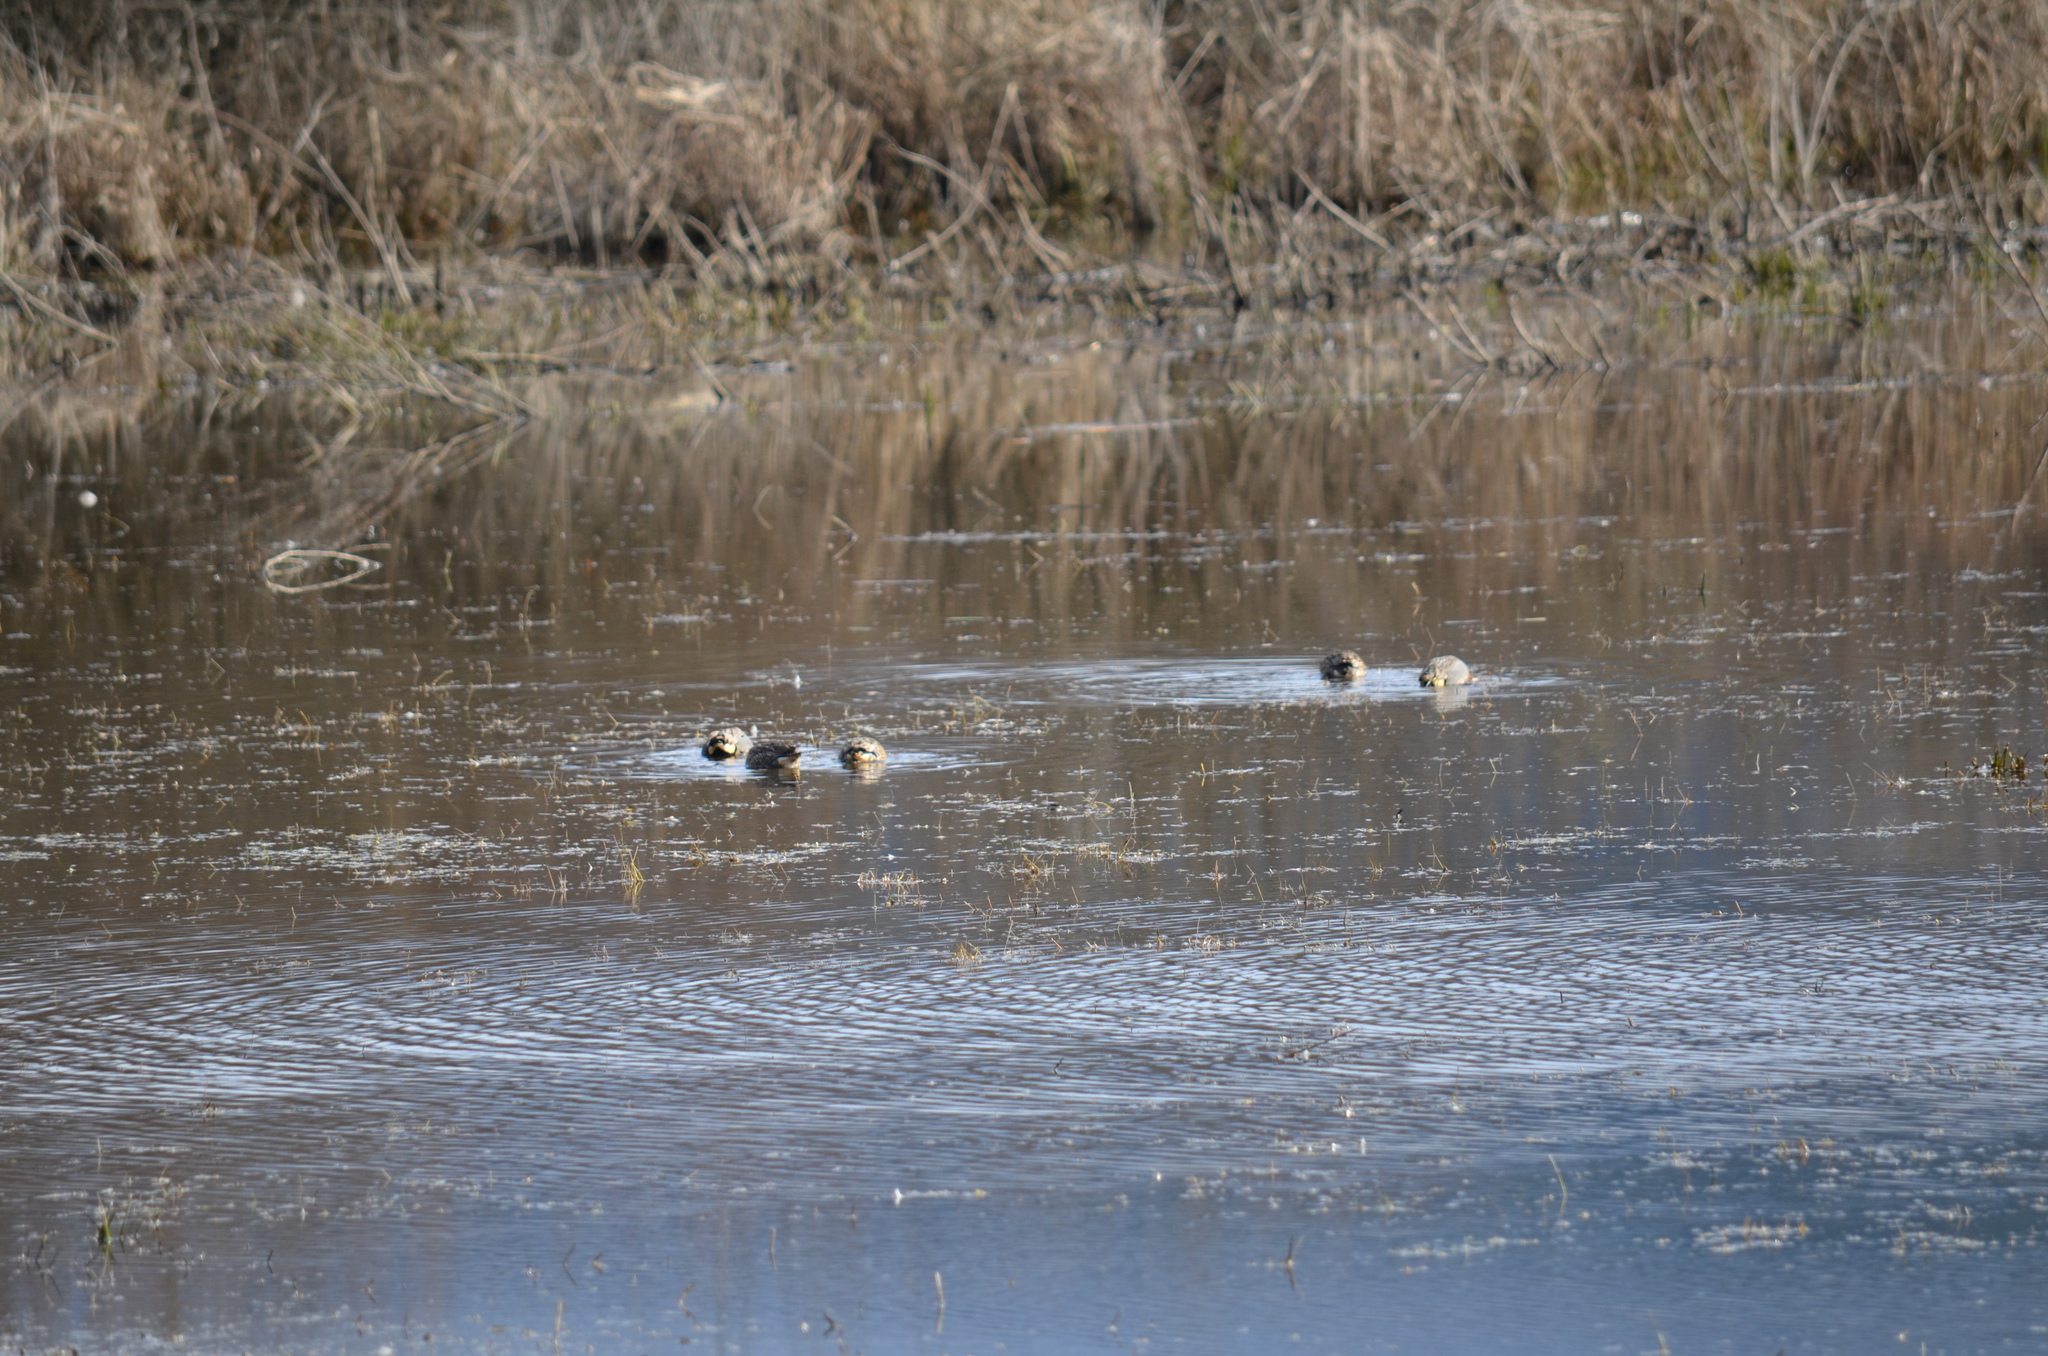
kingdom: Animalia
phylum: Chordata
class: Aves
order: Anseriformes
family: Anatidae
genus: Anas
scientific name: Anas crecca
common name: Eurasian teal
